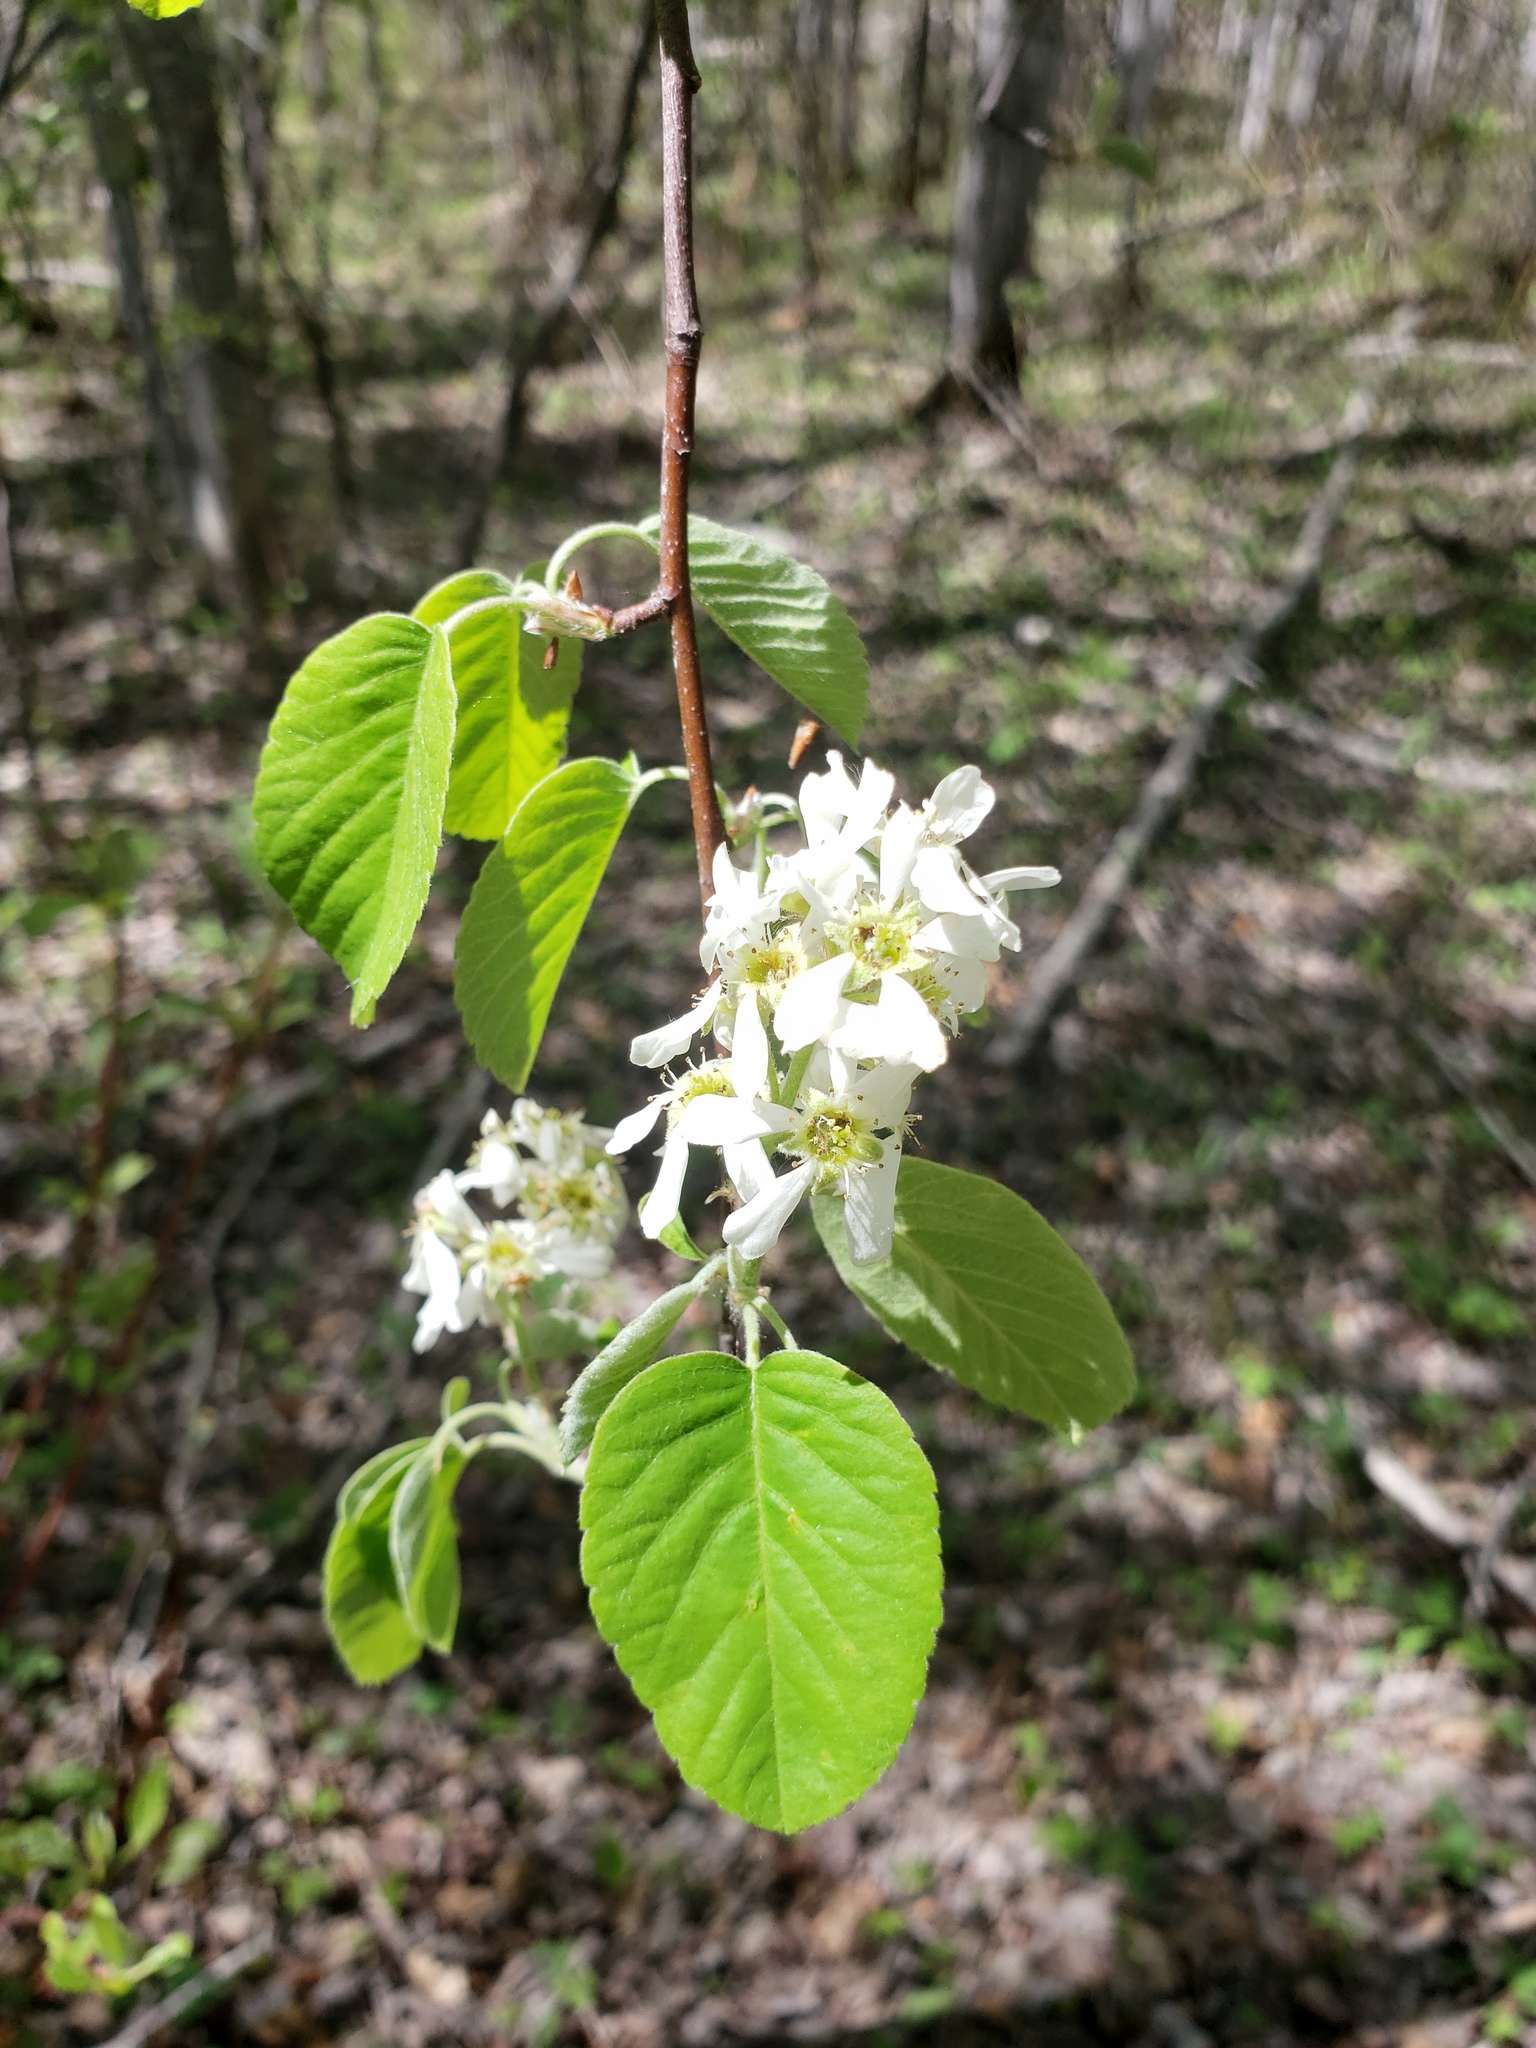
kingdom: Plantae
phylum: Tracheophyta
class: Magnoliopsida
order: Rosales
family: Rosaceae
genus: Amelanchier
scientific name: Amelanchier alnifolia
